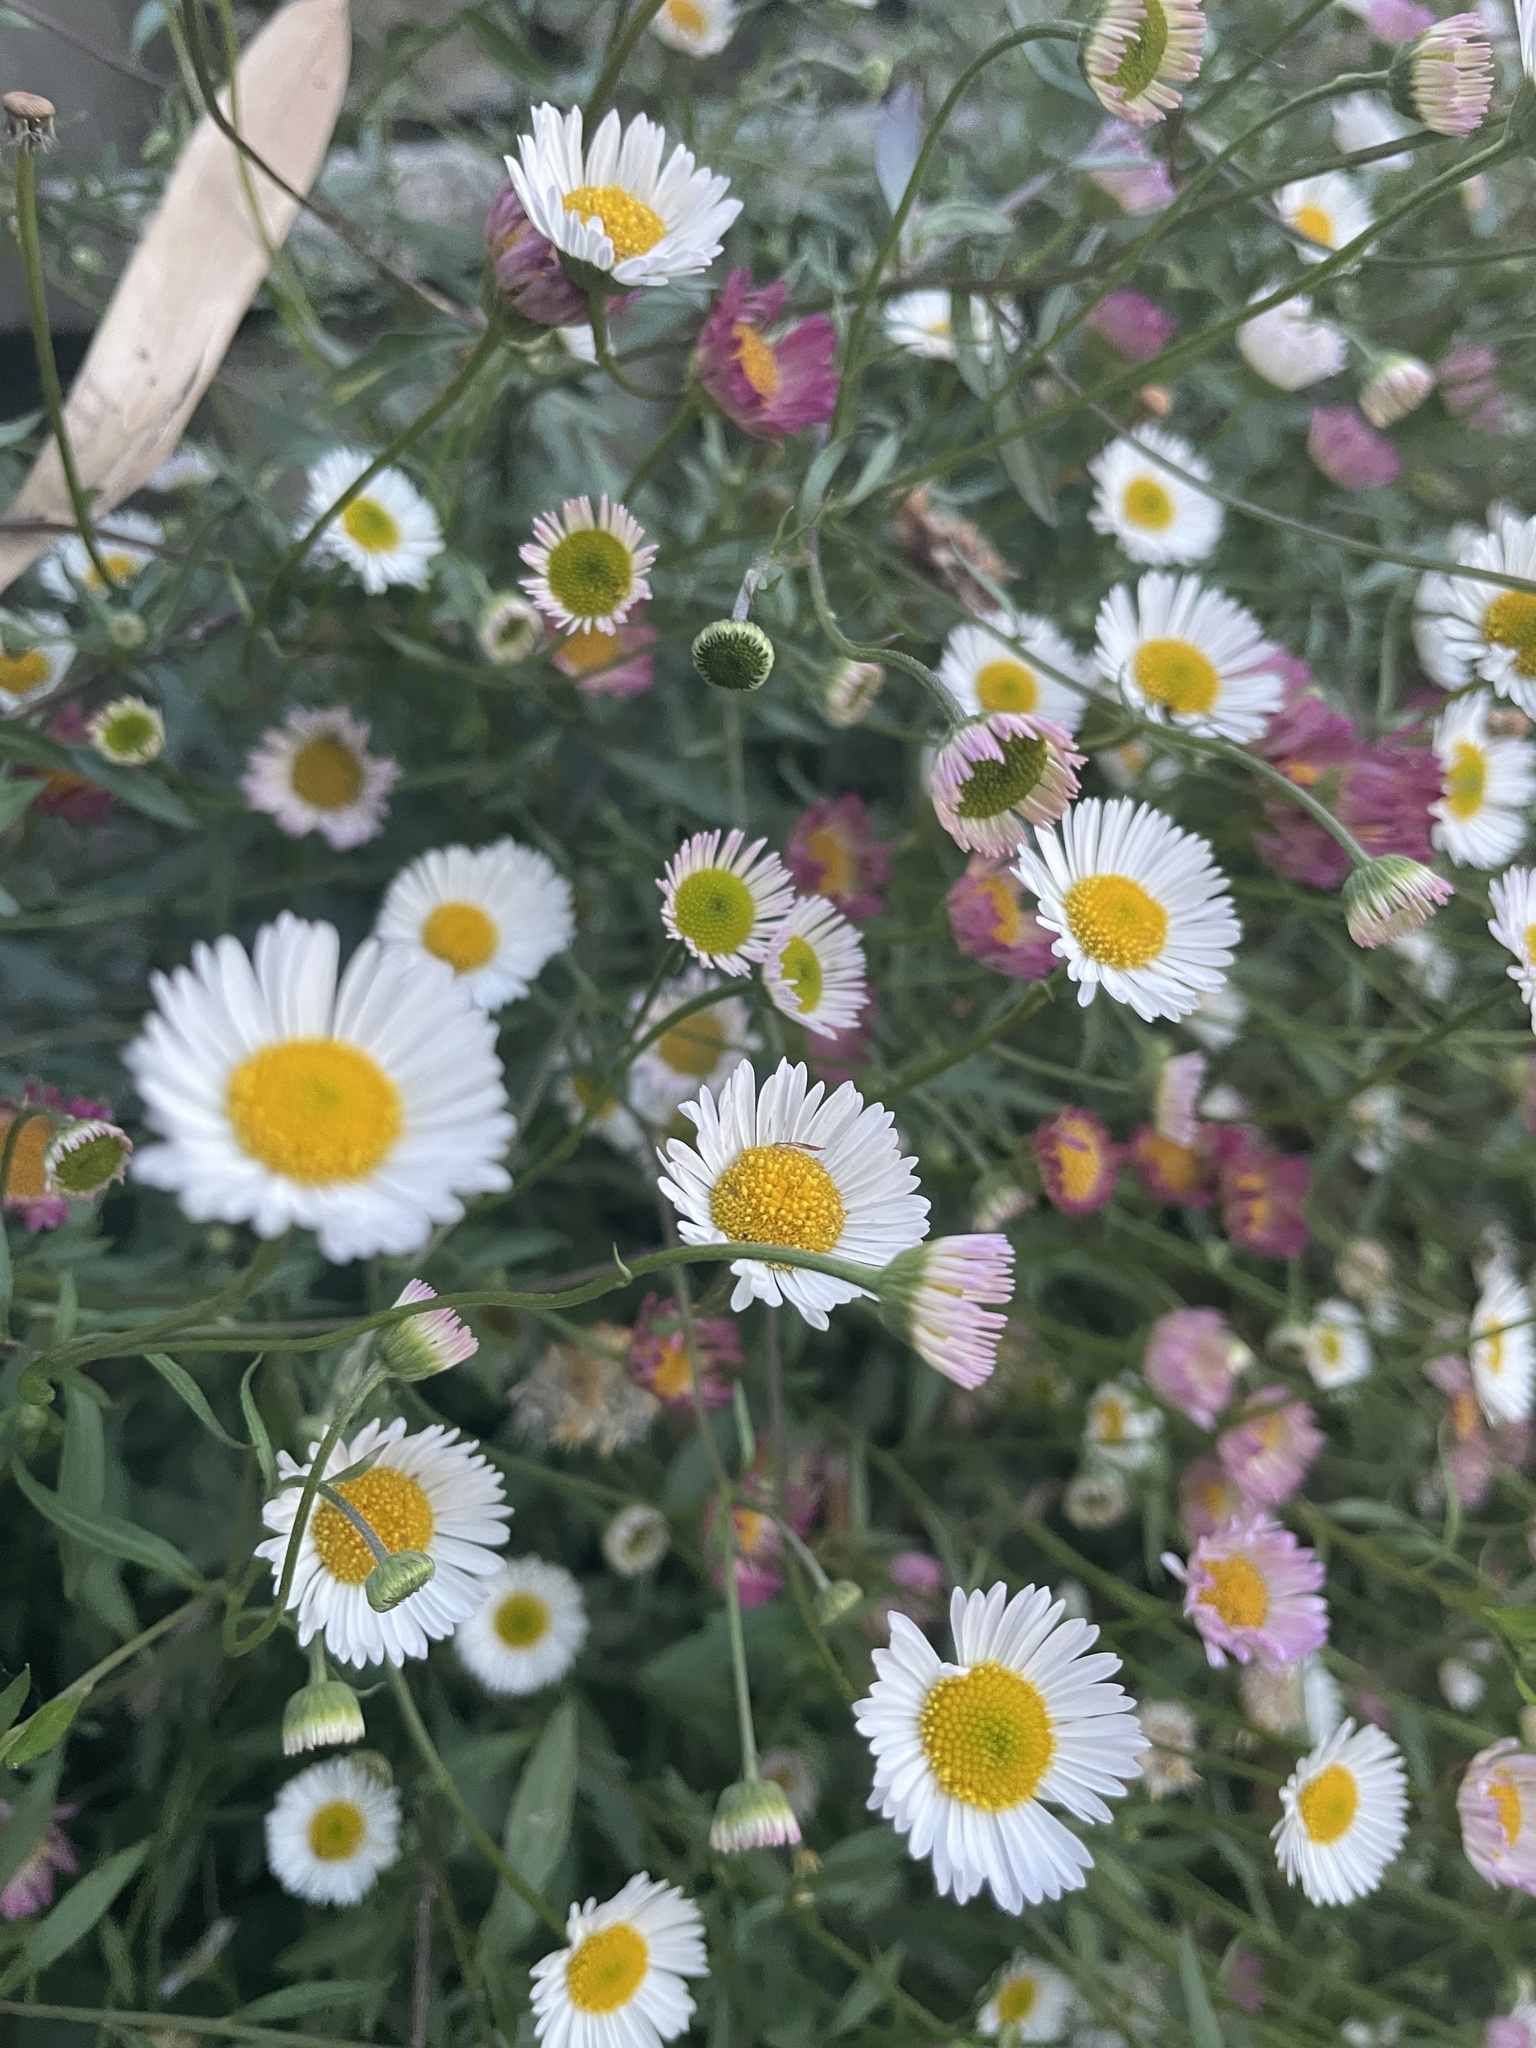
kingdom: Plantae
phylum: Tracheophyta
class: Magnoliopsida
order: Asterales
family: Asteraceae
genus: Erigeron
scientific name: Erigeron karvinskianus
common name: Mexican fleabane
